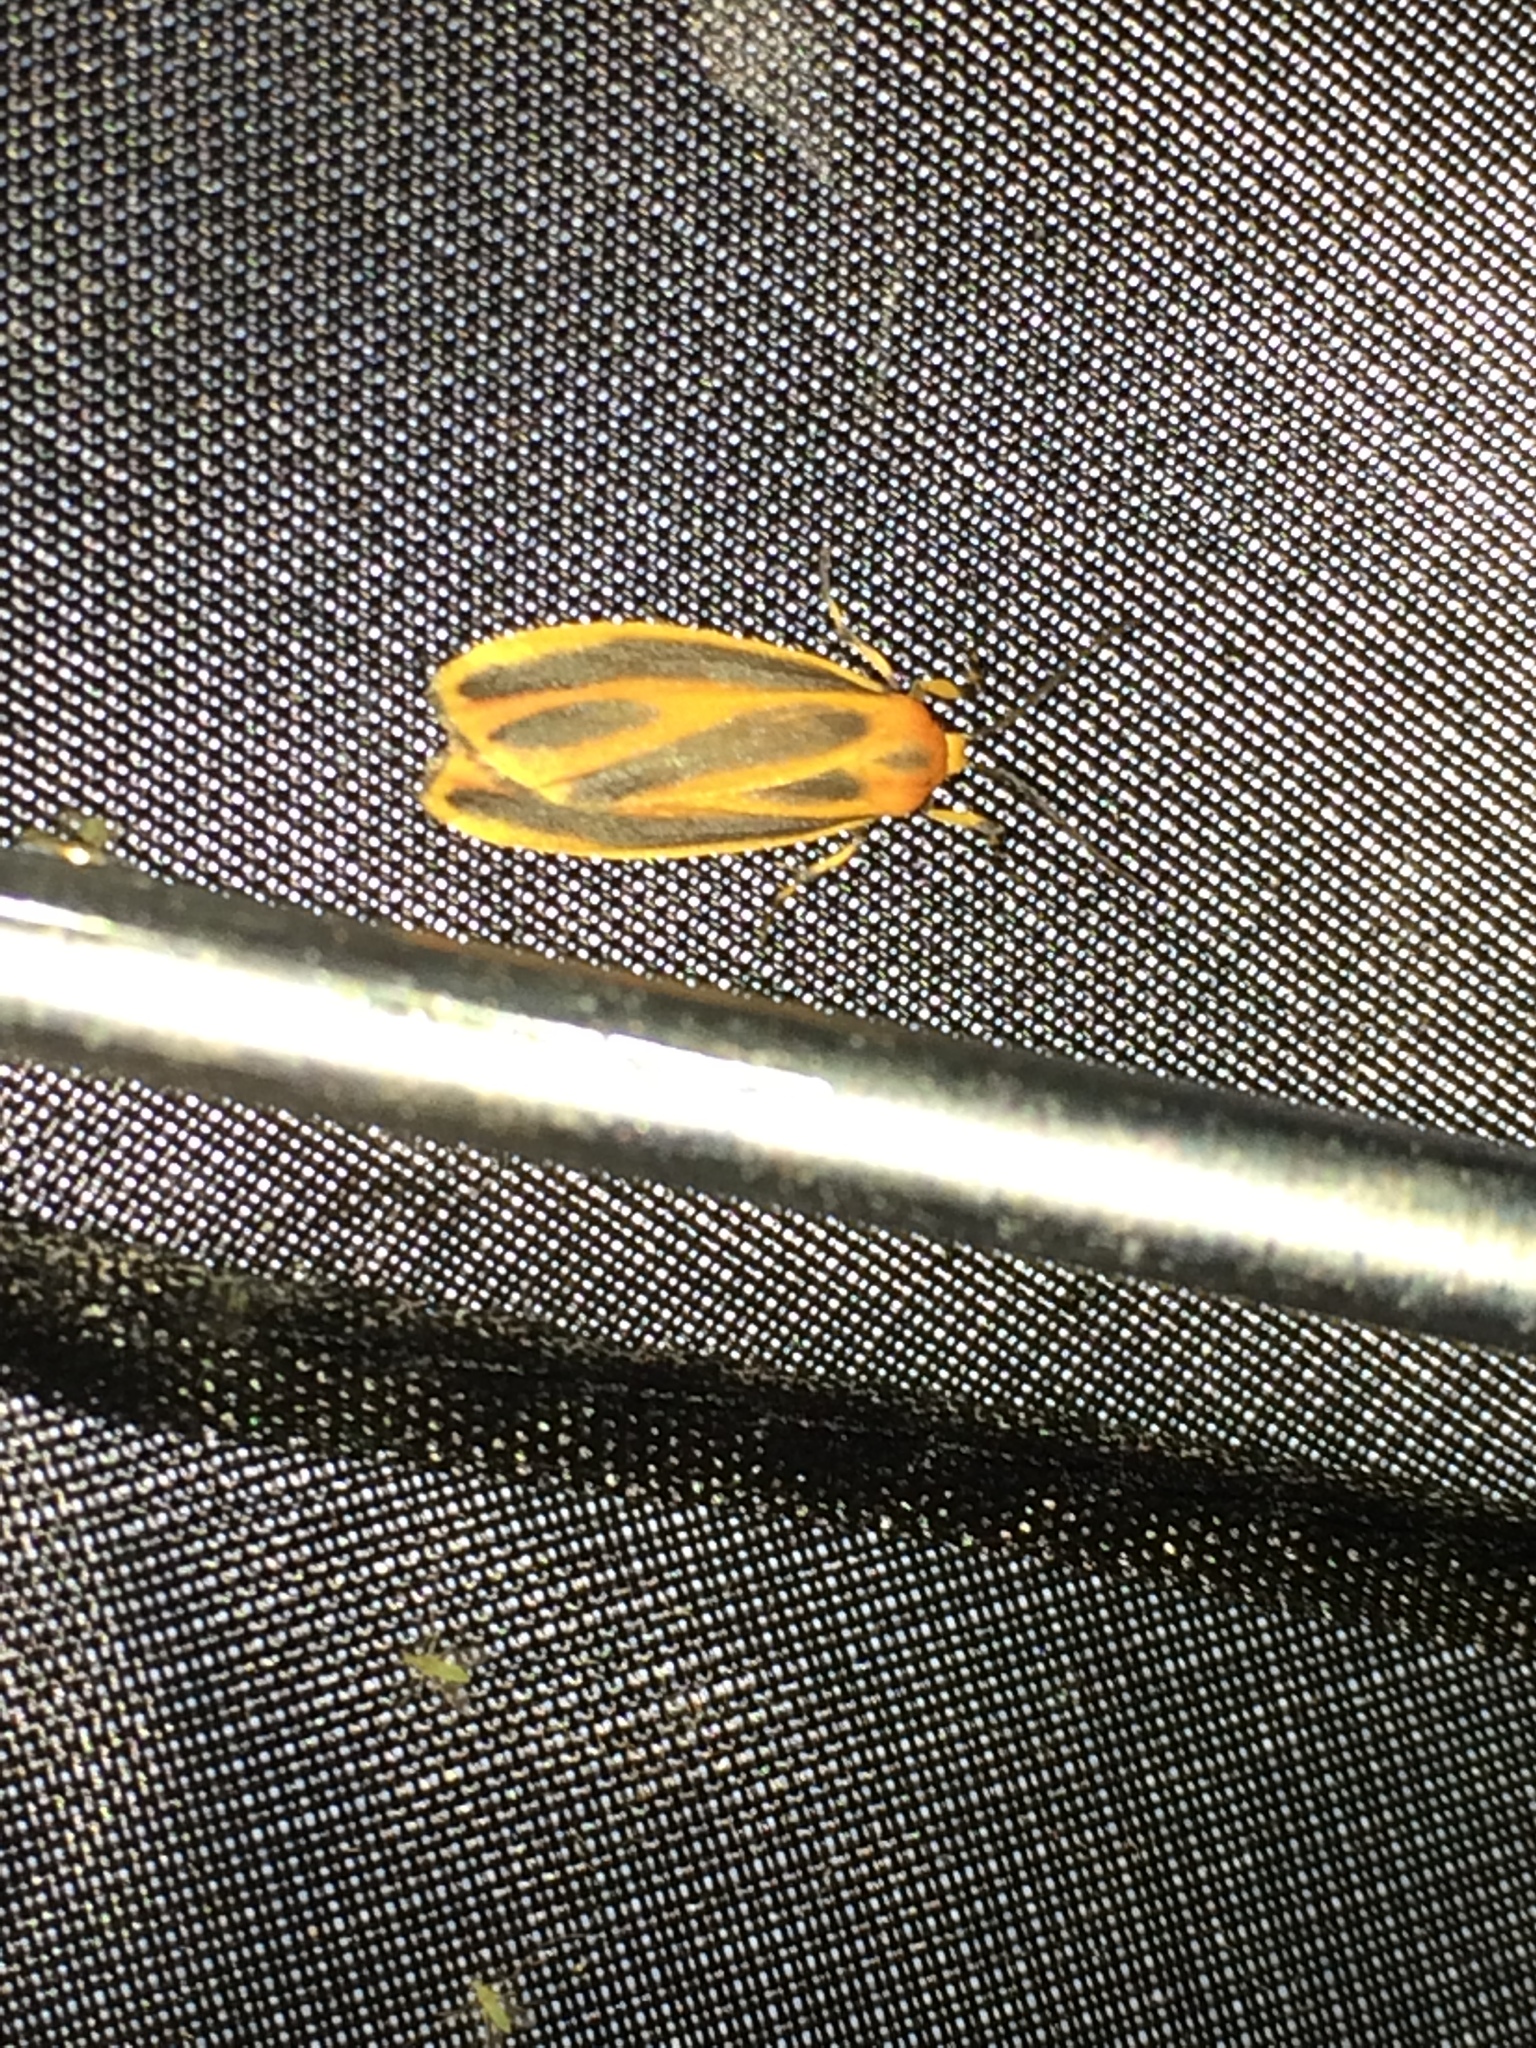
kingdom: Animalia
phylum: Arthropoda
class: Insecta
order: Lepidoptera
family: Erebidae
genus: Hypoprepia
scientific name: Hypoprepia fucosa
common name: Painted lichen moth
